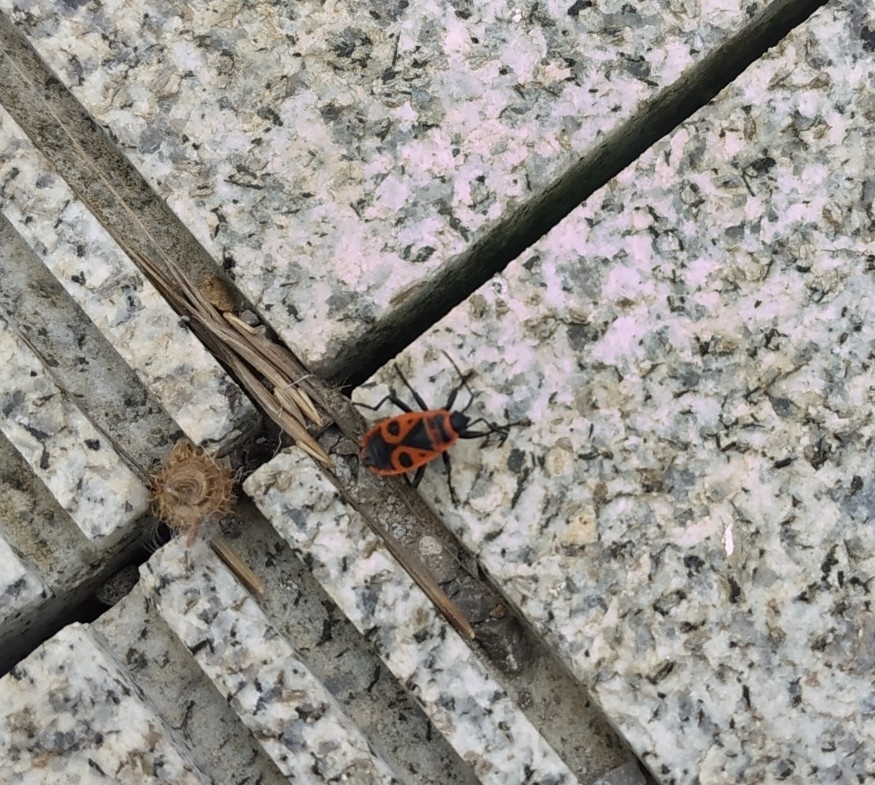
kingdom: Animalia
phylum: Arthropoda
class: Insecta
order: Hemiptera
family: Pyrrhocoridae
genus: Pyrrhocoris
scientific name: Pyrrhocoris apterus
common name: Firebug
